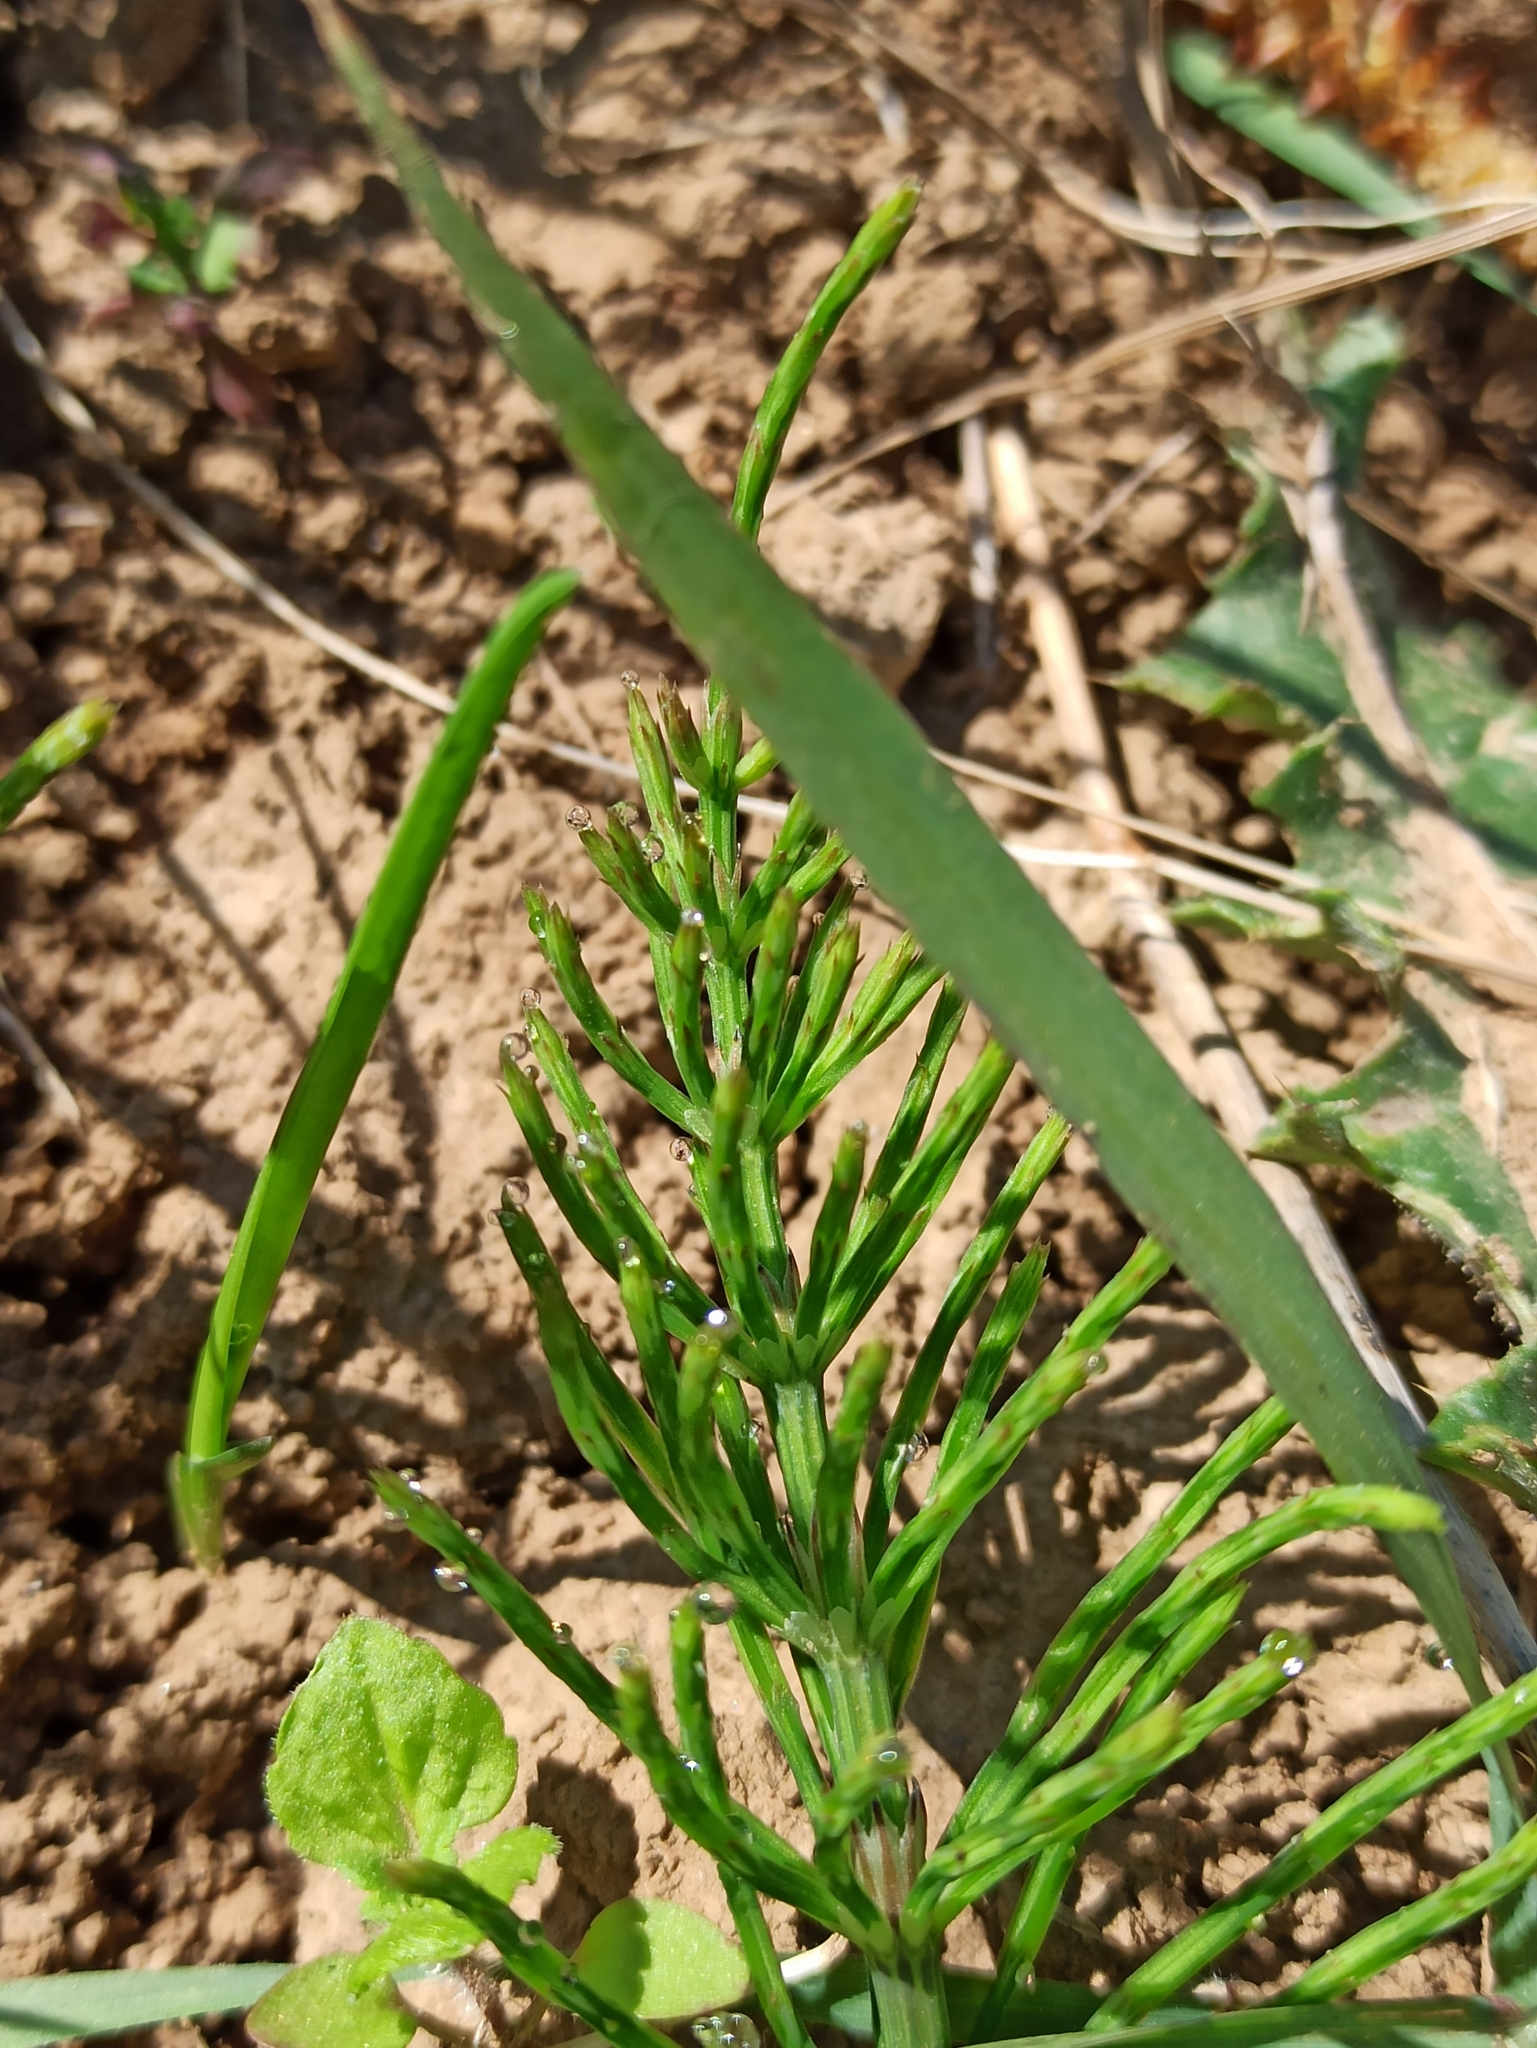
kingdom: Plantae
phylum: Tracheophyta
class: Polypodiopsida
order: Equisetales
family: Equisetaceae
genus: Equisetum
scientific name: Equisetum arvense
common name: Field horsetail
